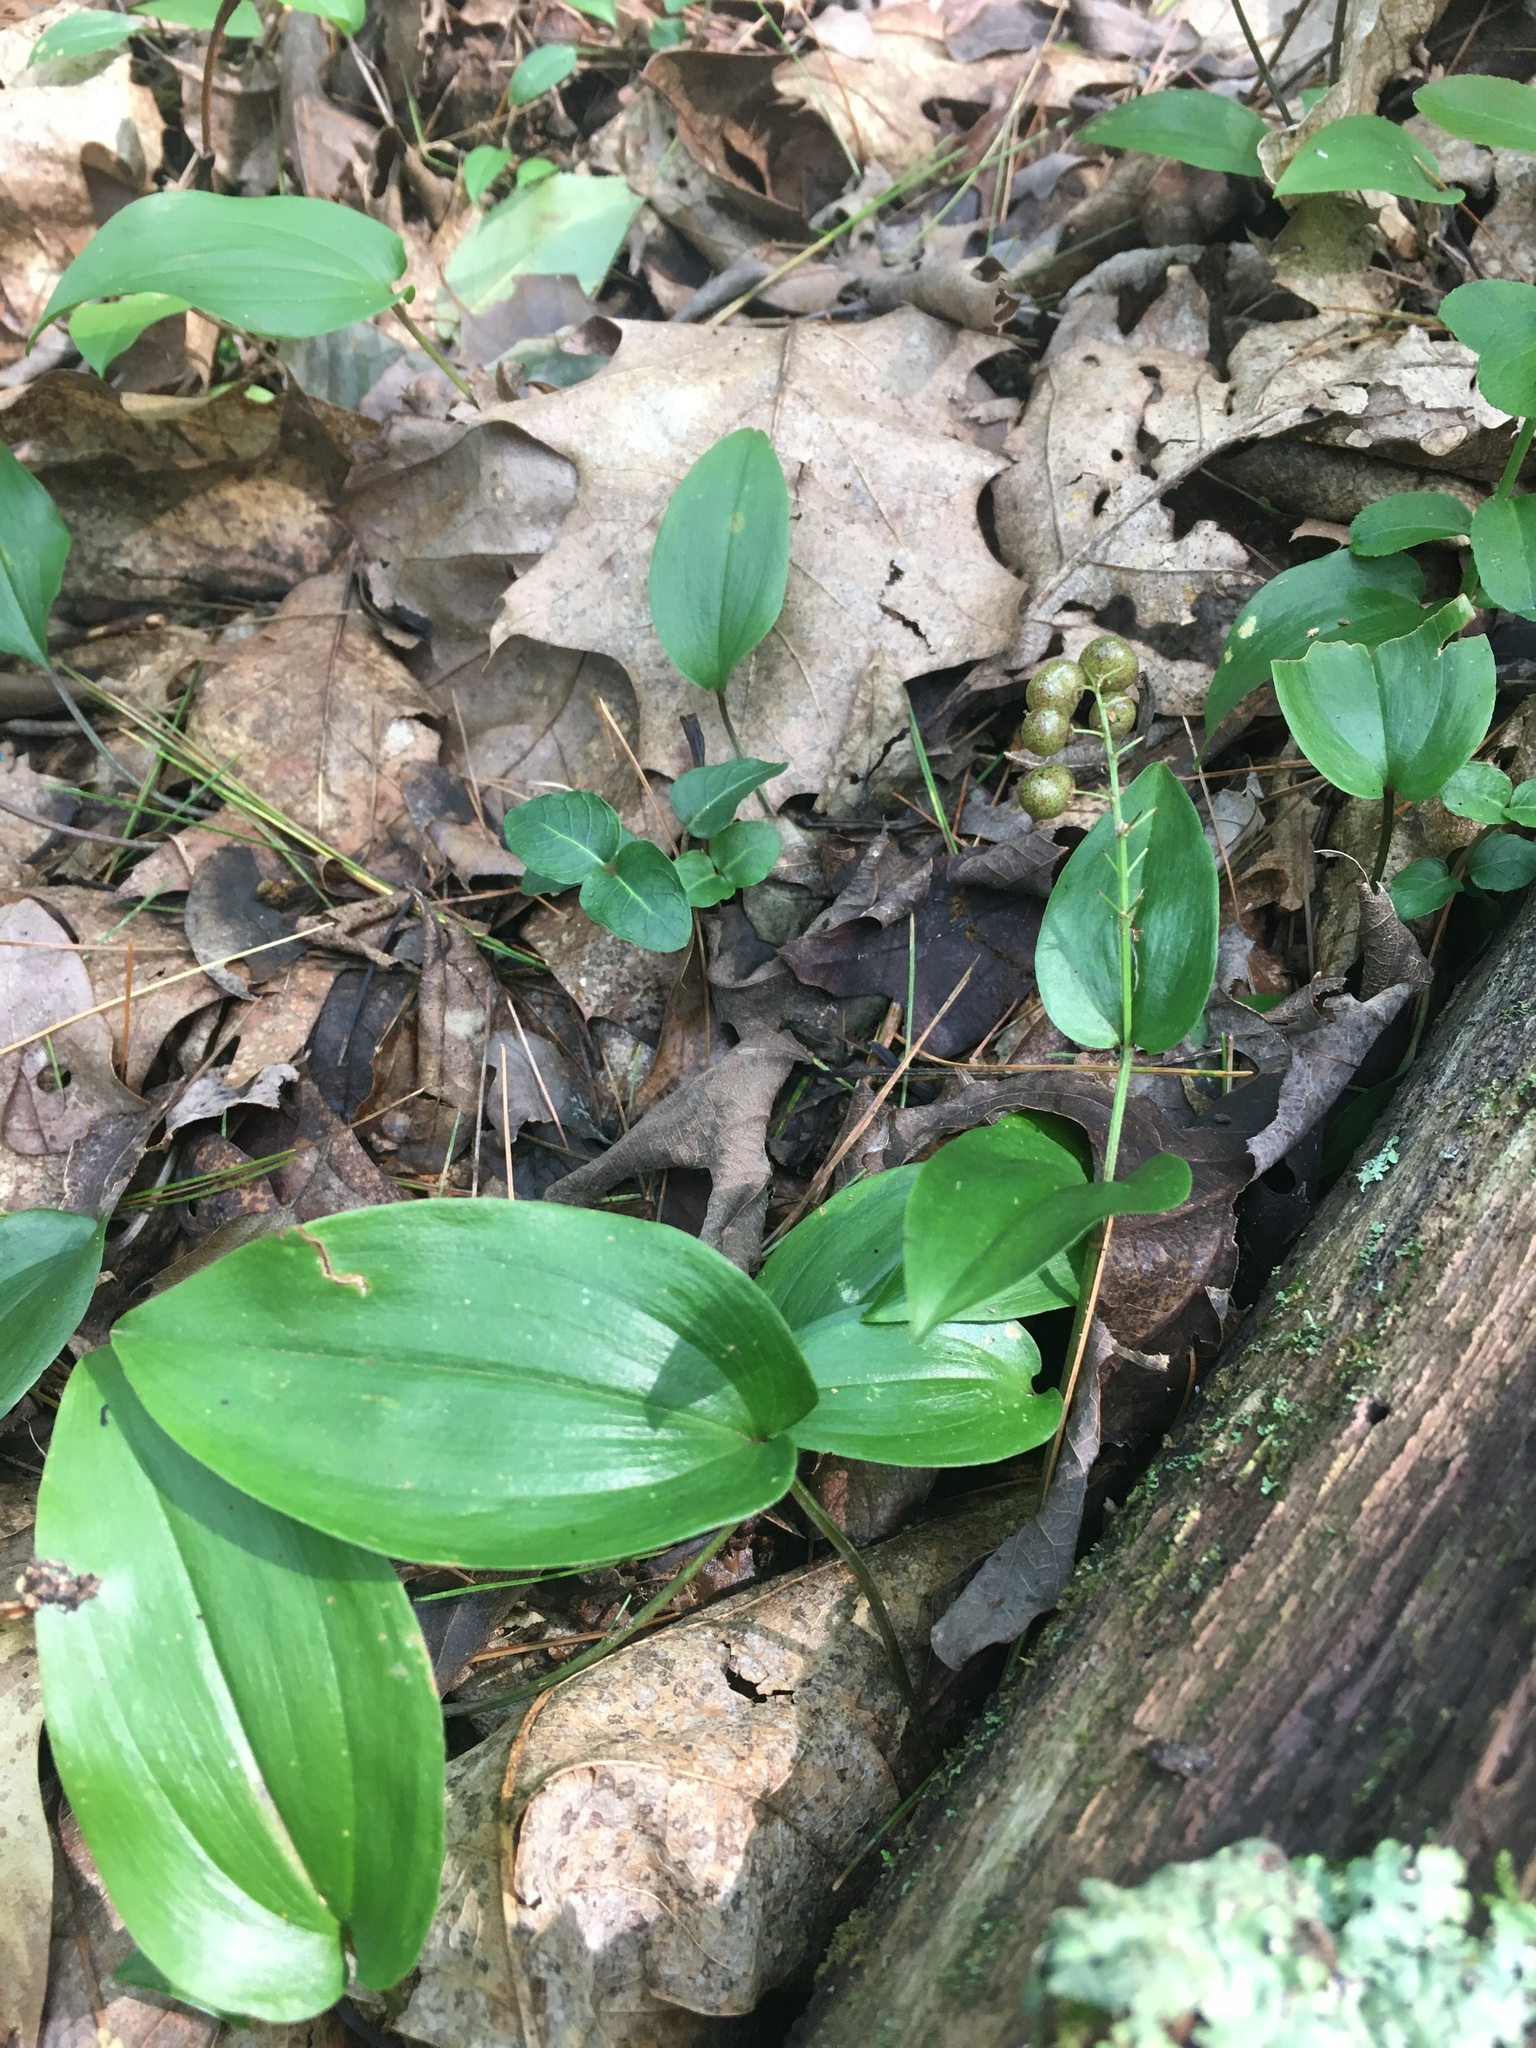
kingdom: Plantae
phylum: Tracheophyta
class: Liliopsida
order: Asparagales
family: Asparagaceae
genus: Maianthemum
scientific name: Maianthemum canadense
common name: False lily-of-the-valley
